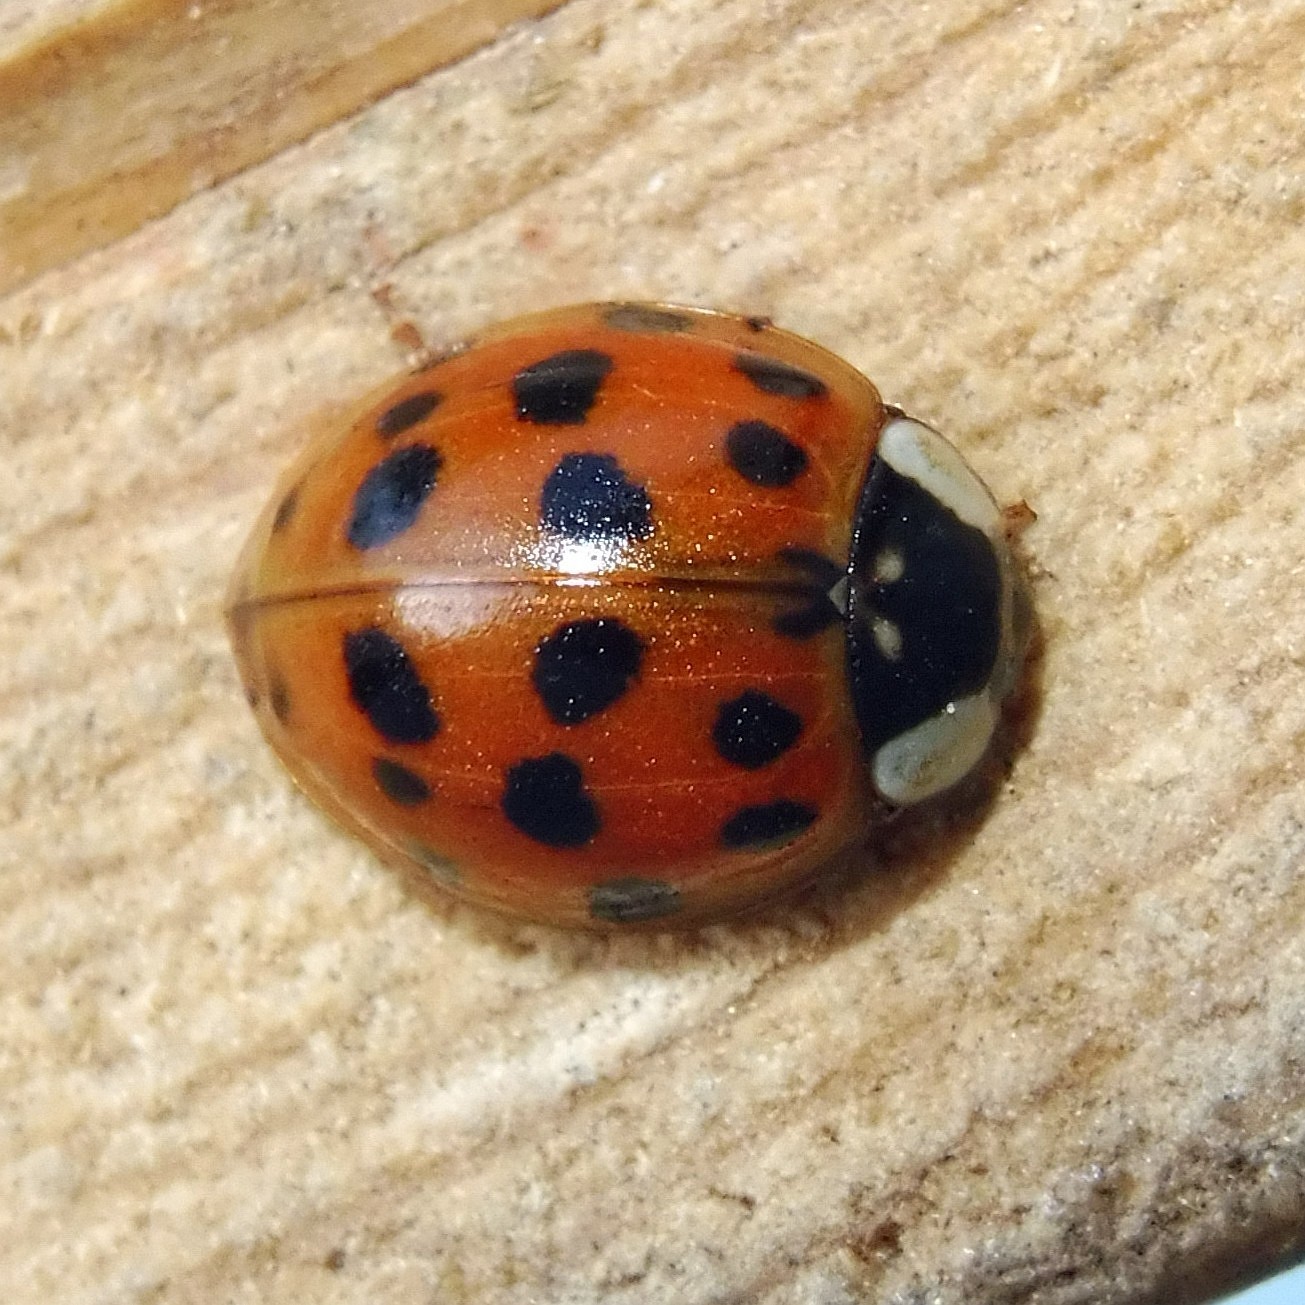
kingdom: Animalia
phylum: Arthropoda
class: Insecta
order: Coleoptera
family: Coccinellidae
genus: Harmonia
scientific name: Harmonia axyridis
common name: Harlequin ladybird
